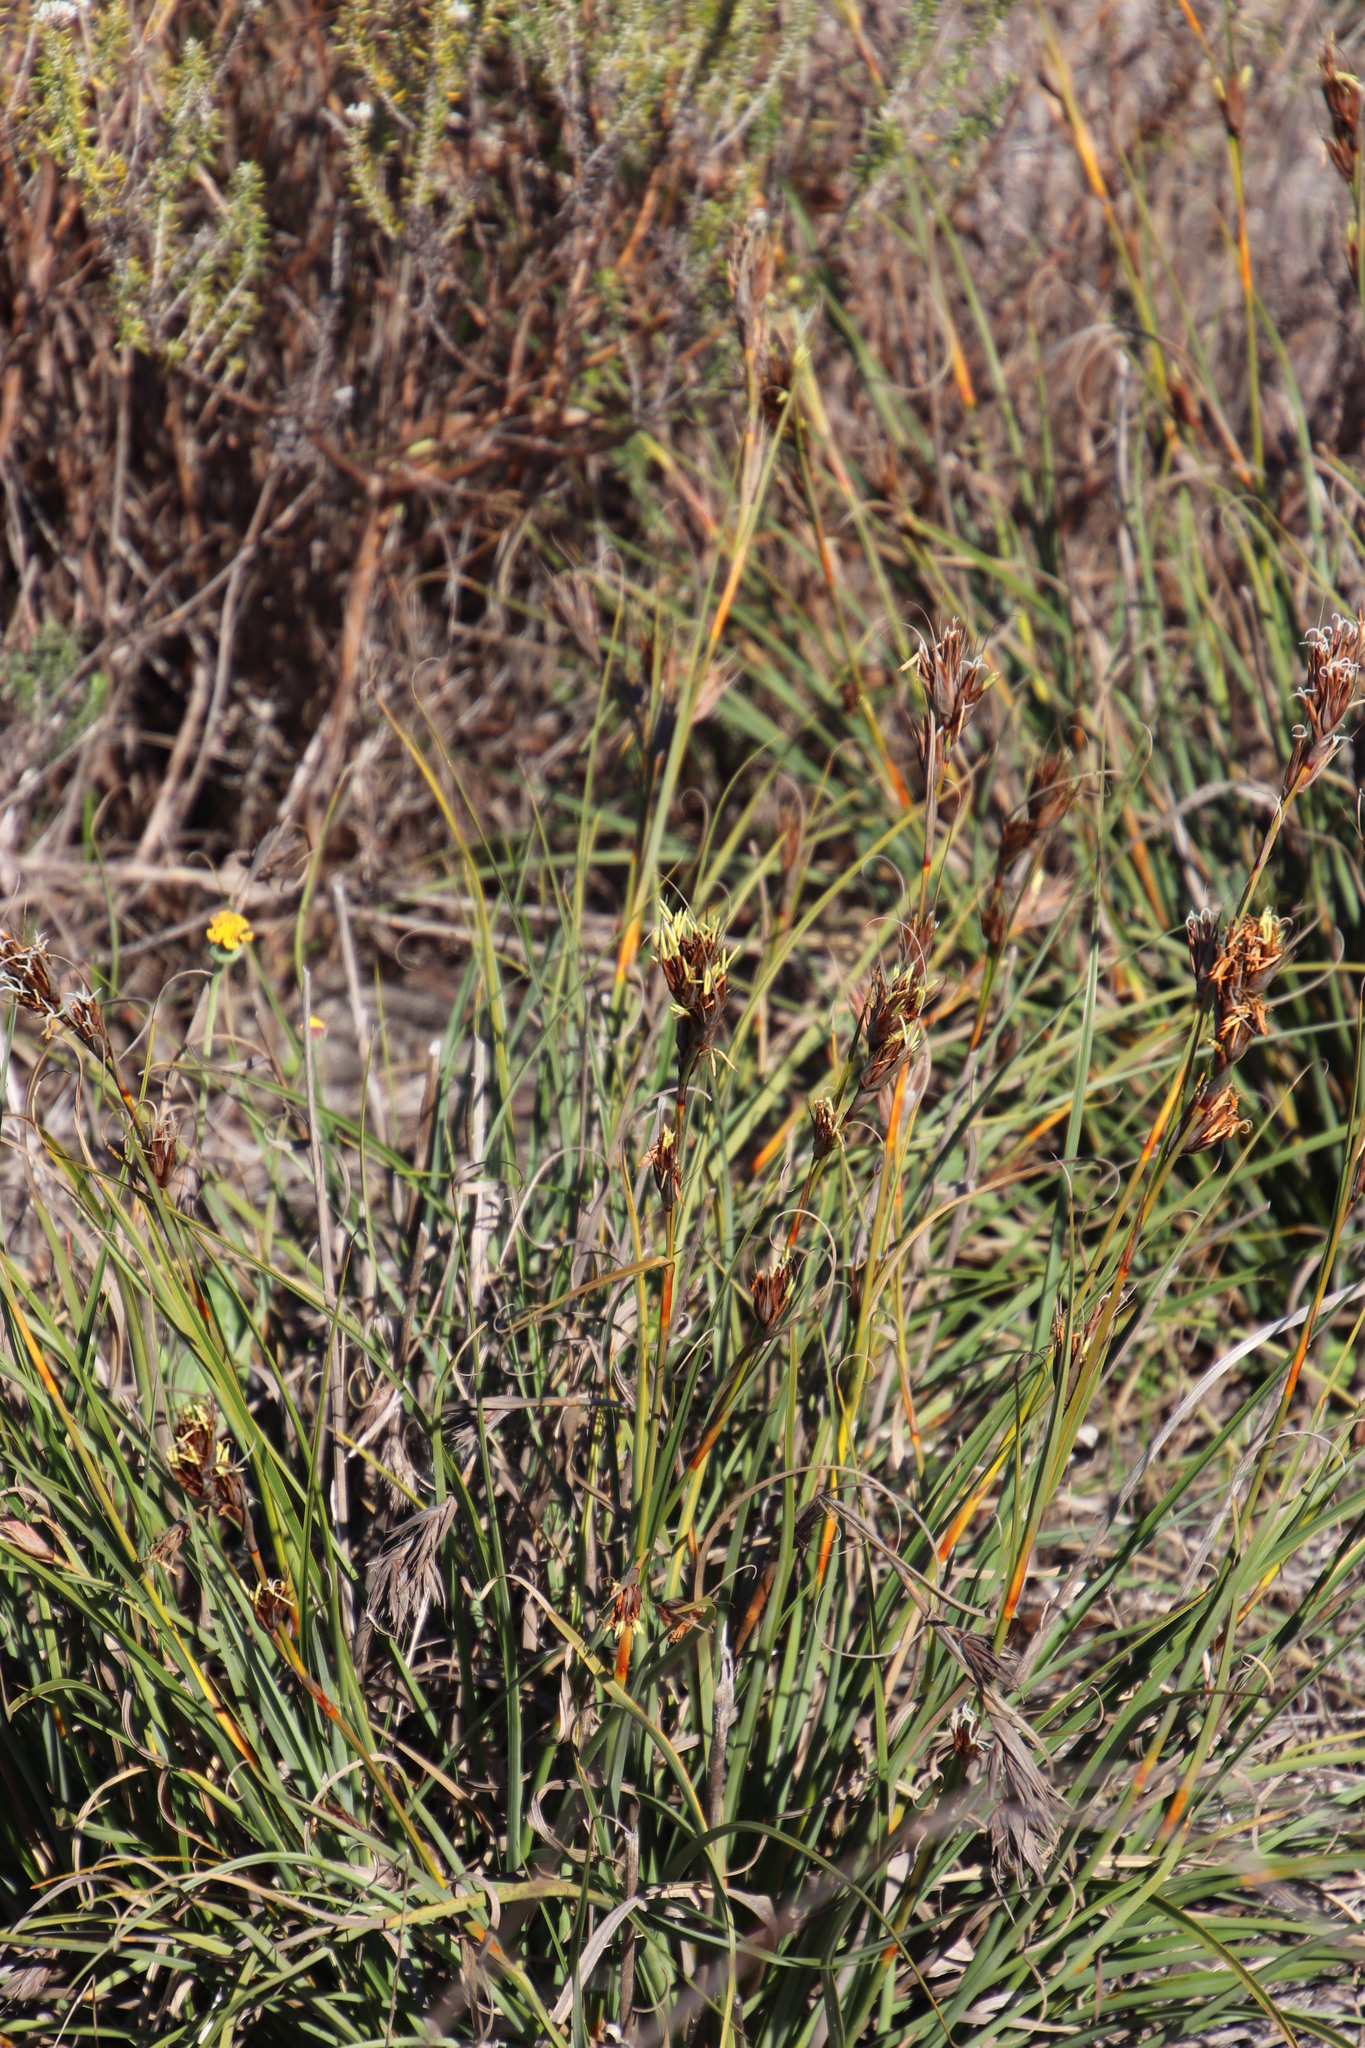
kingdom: Plantae
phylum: Tracheophyta
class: Liliopsida
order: Poales
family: Cyperaceae
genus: Tetraria
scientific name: Tetraria eximia
